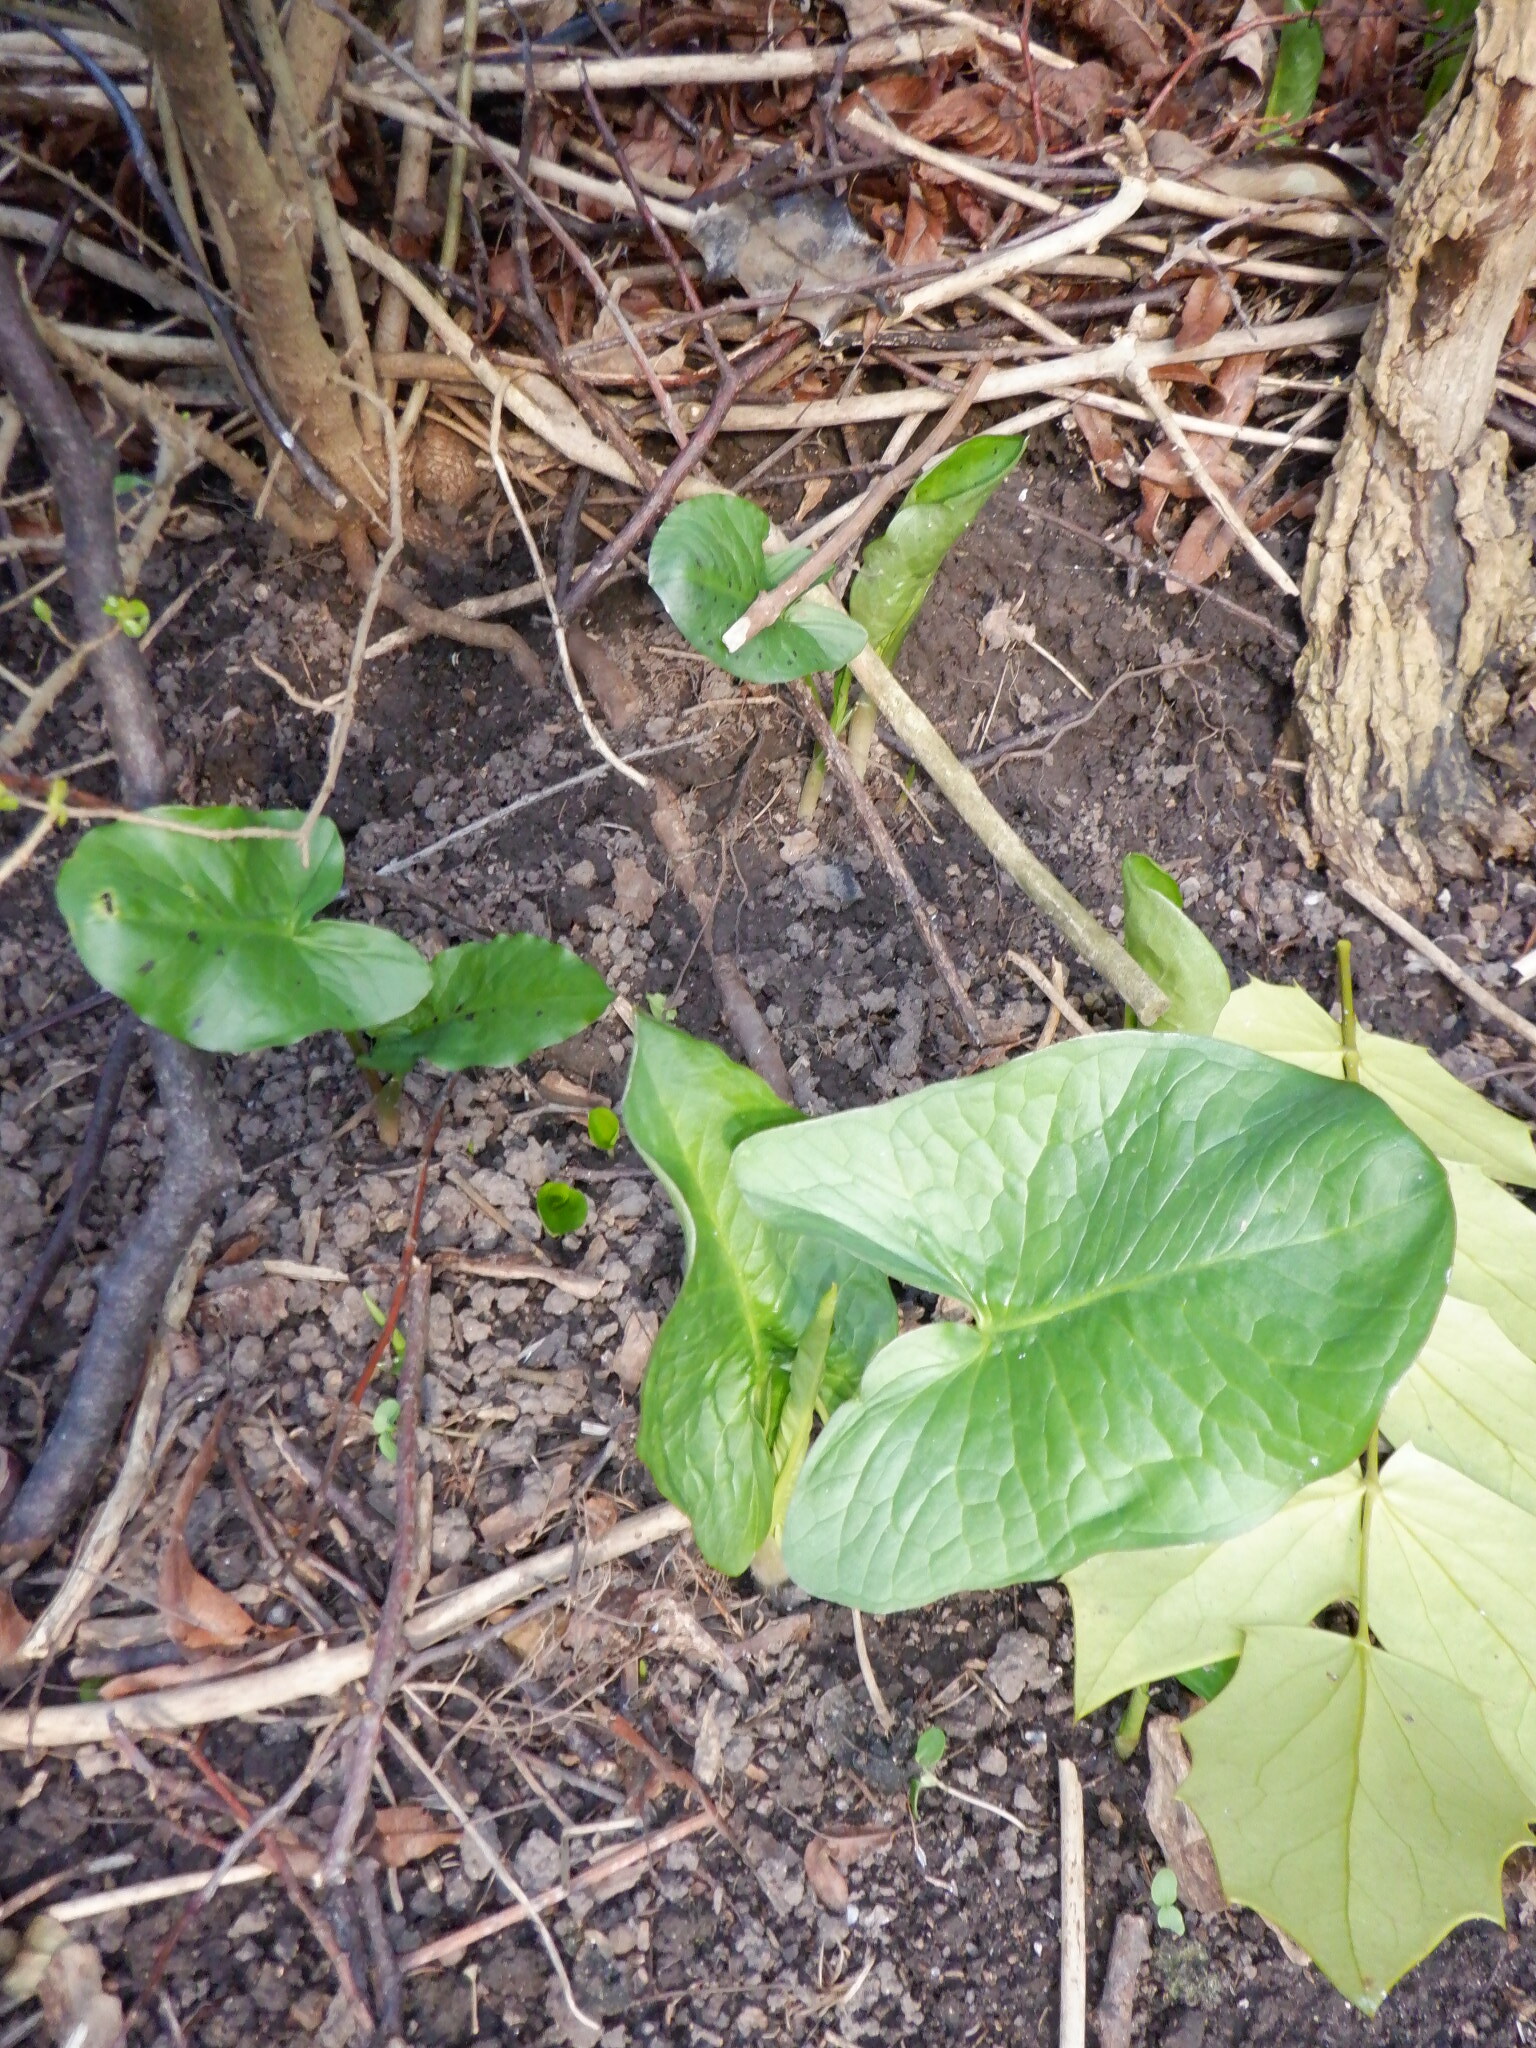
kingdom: Plantae
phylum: Tracheophyta
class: Liliopsida
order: Alismatales
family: Araceae
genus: Arum
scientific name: Arum maculatum
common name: Lords-and-ladies
